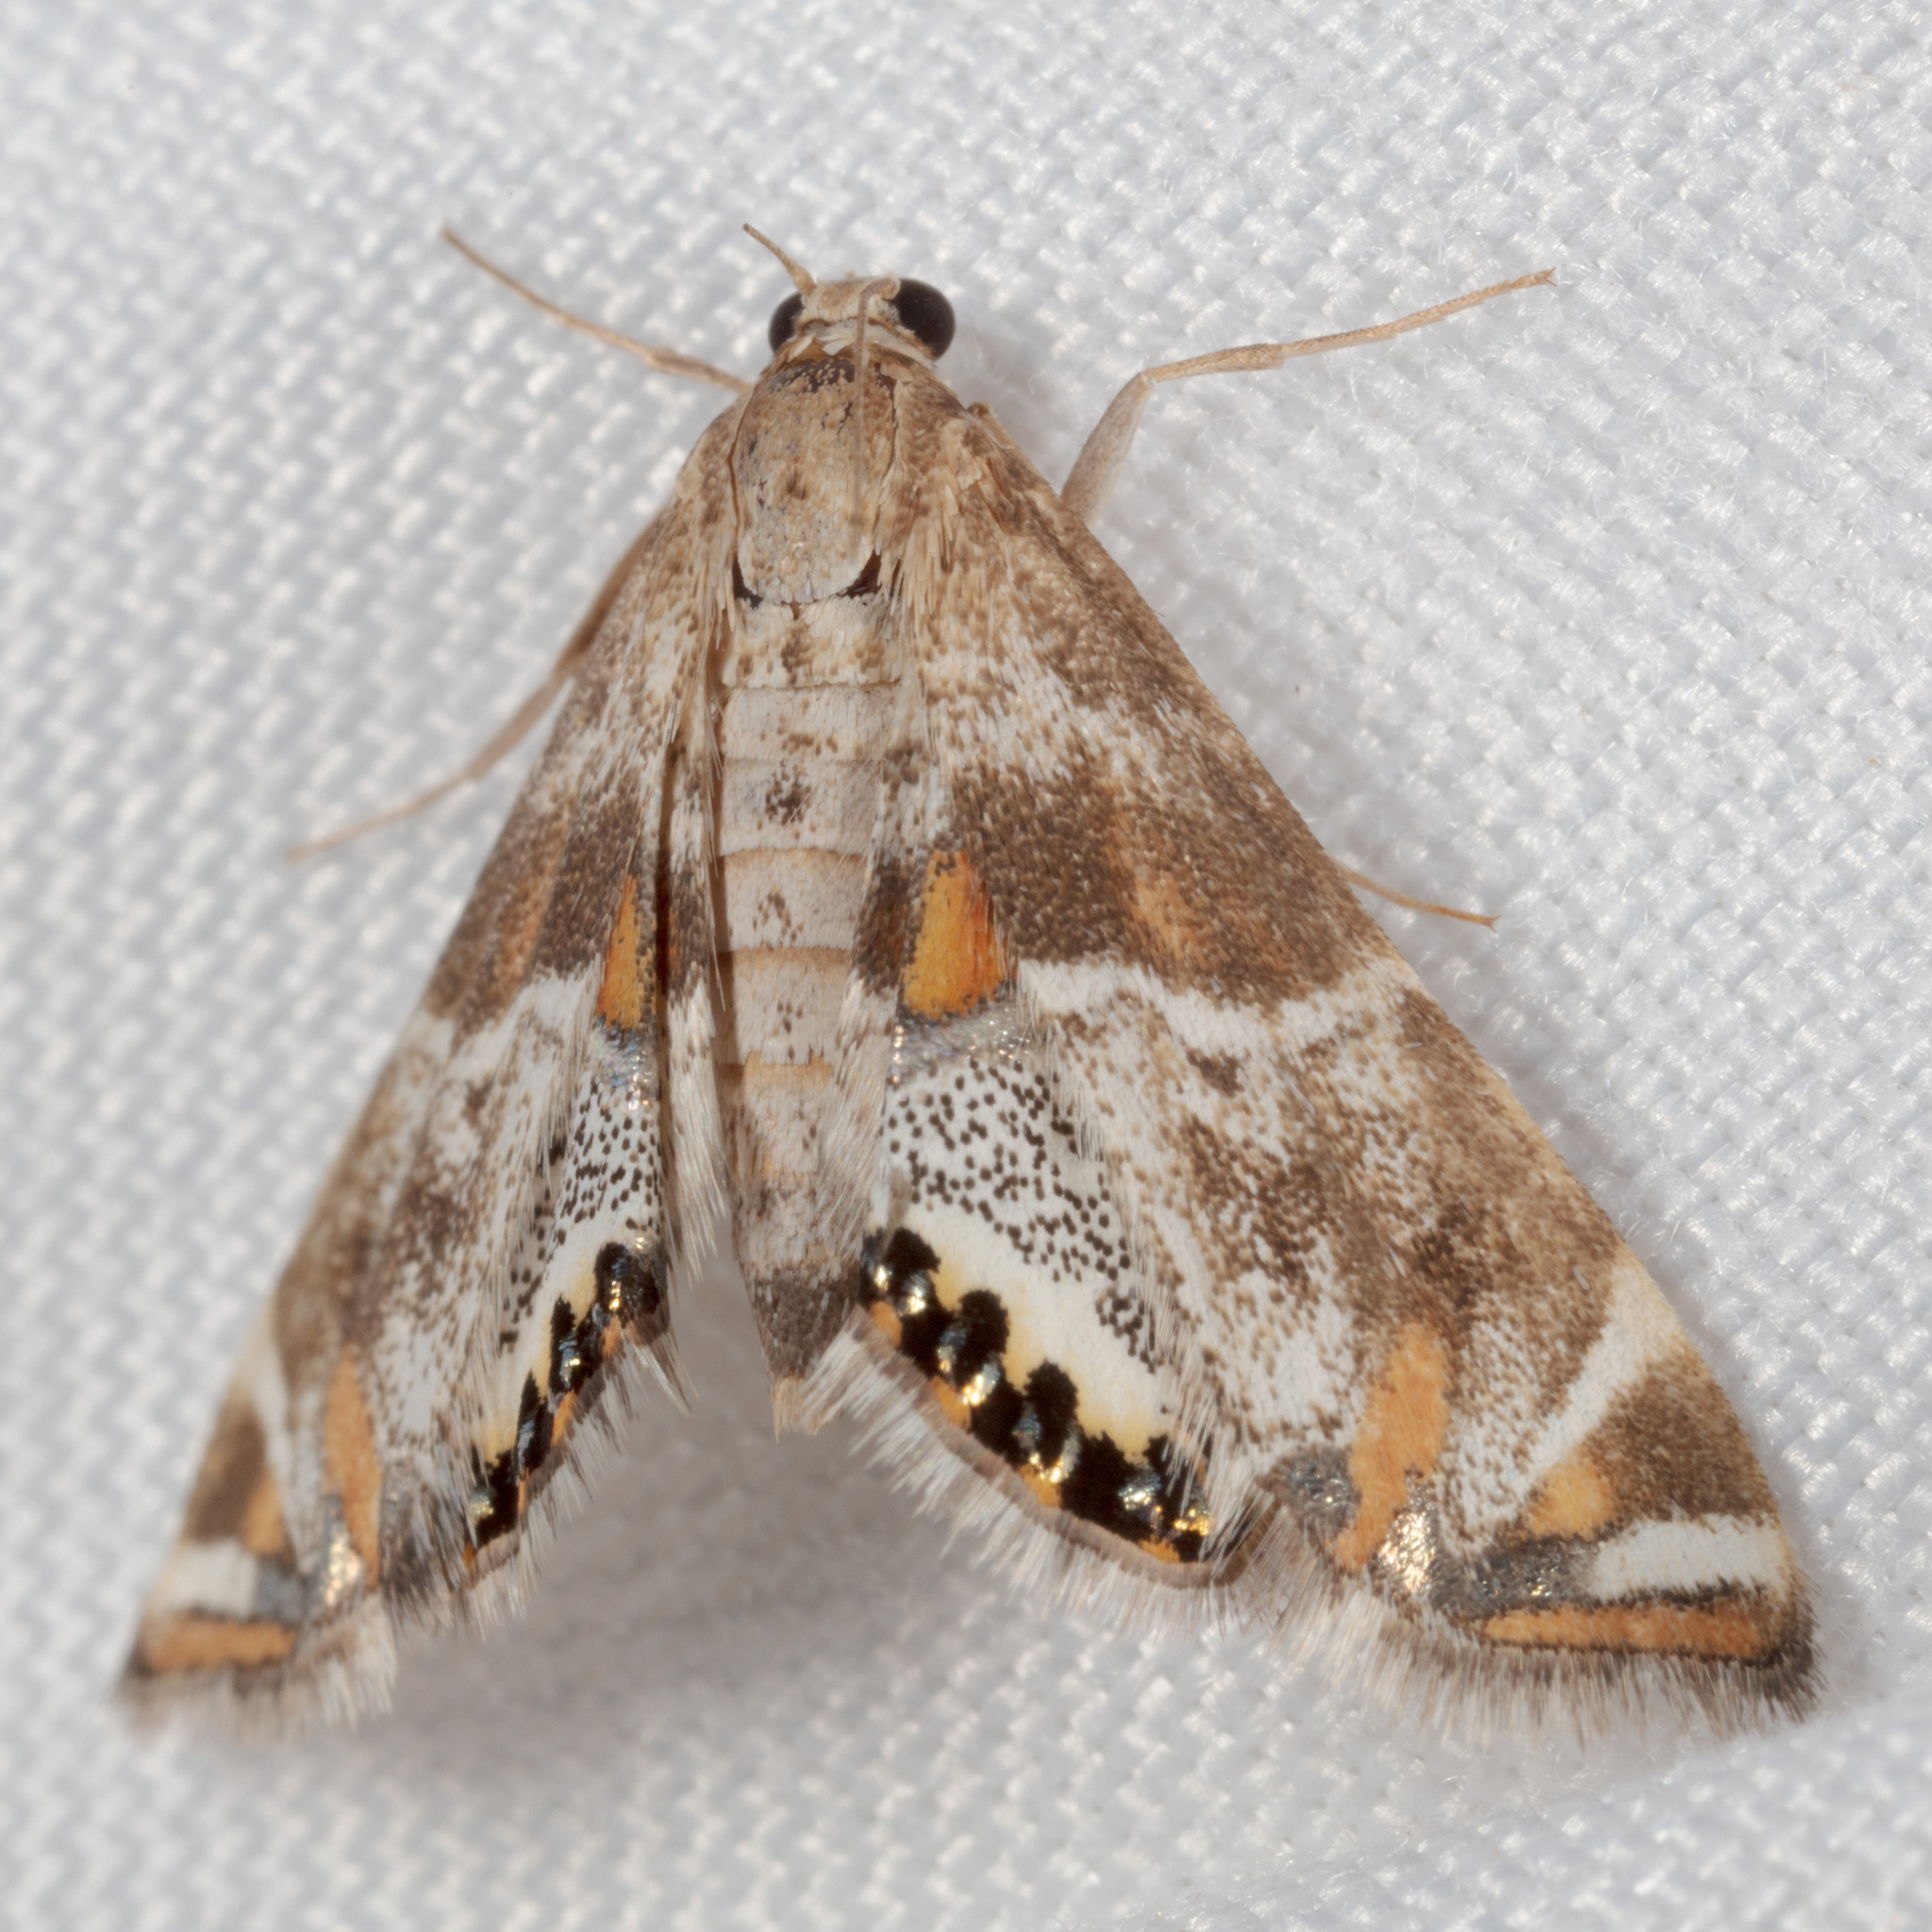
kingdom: Animalia
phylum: Arthropoda
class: Insecta
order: Lepidoptera
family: Crambidae
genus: Petrophila
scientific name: Petrophila jaliscalis
